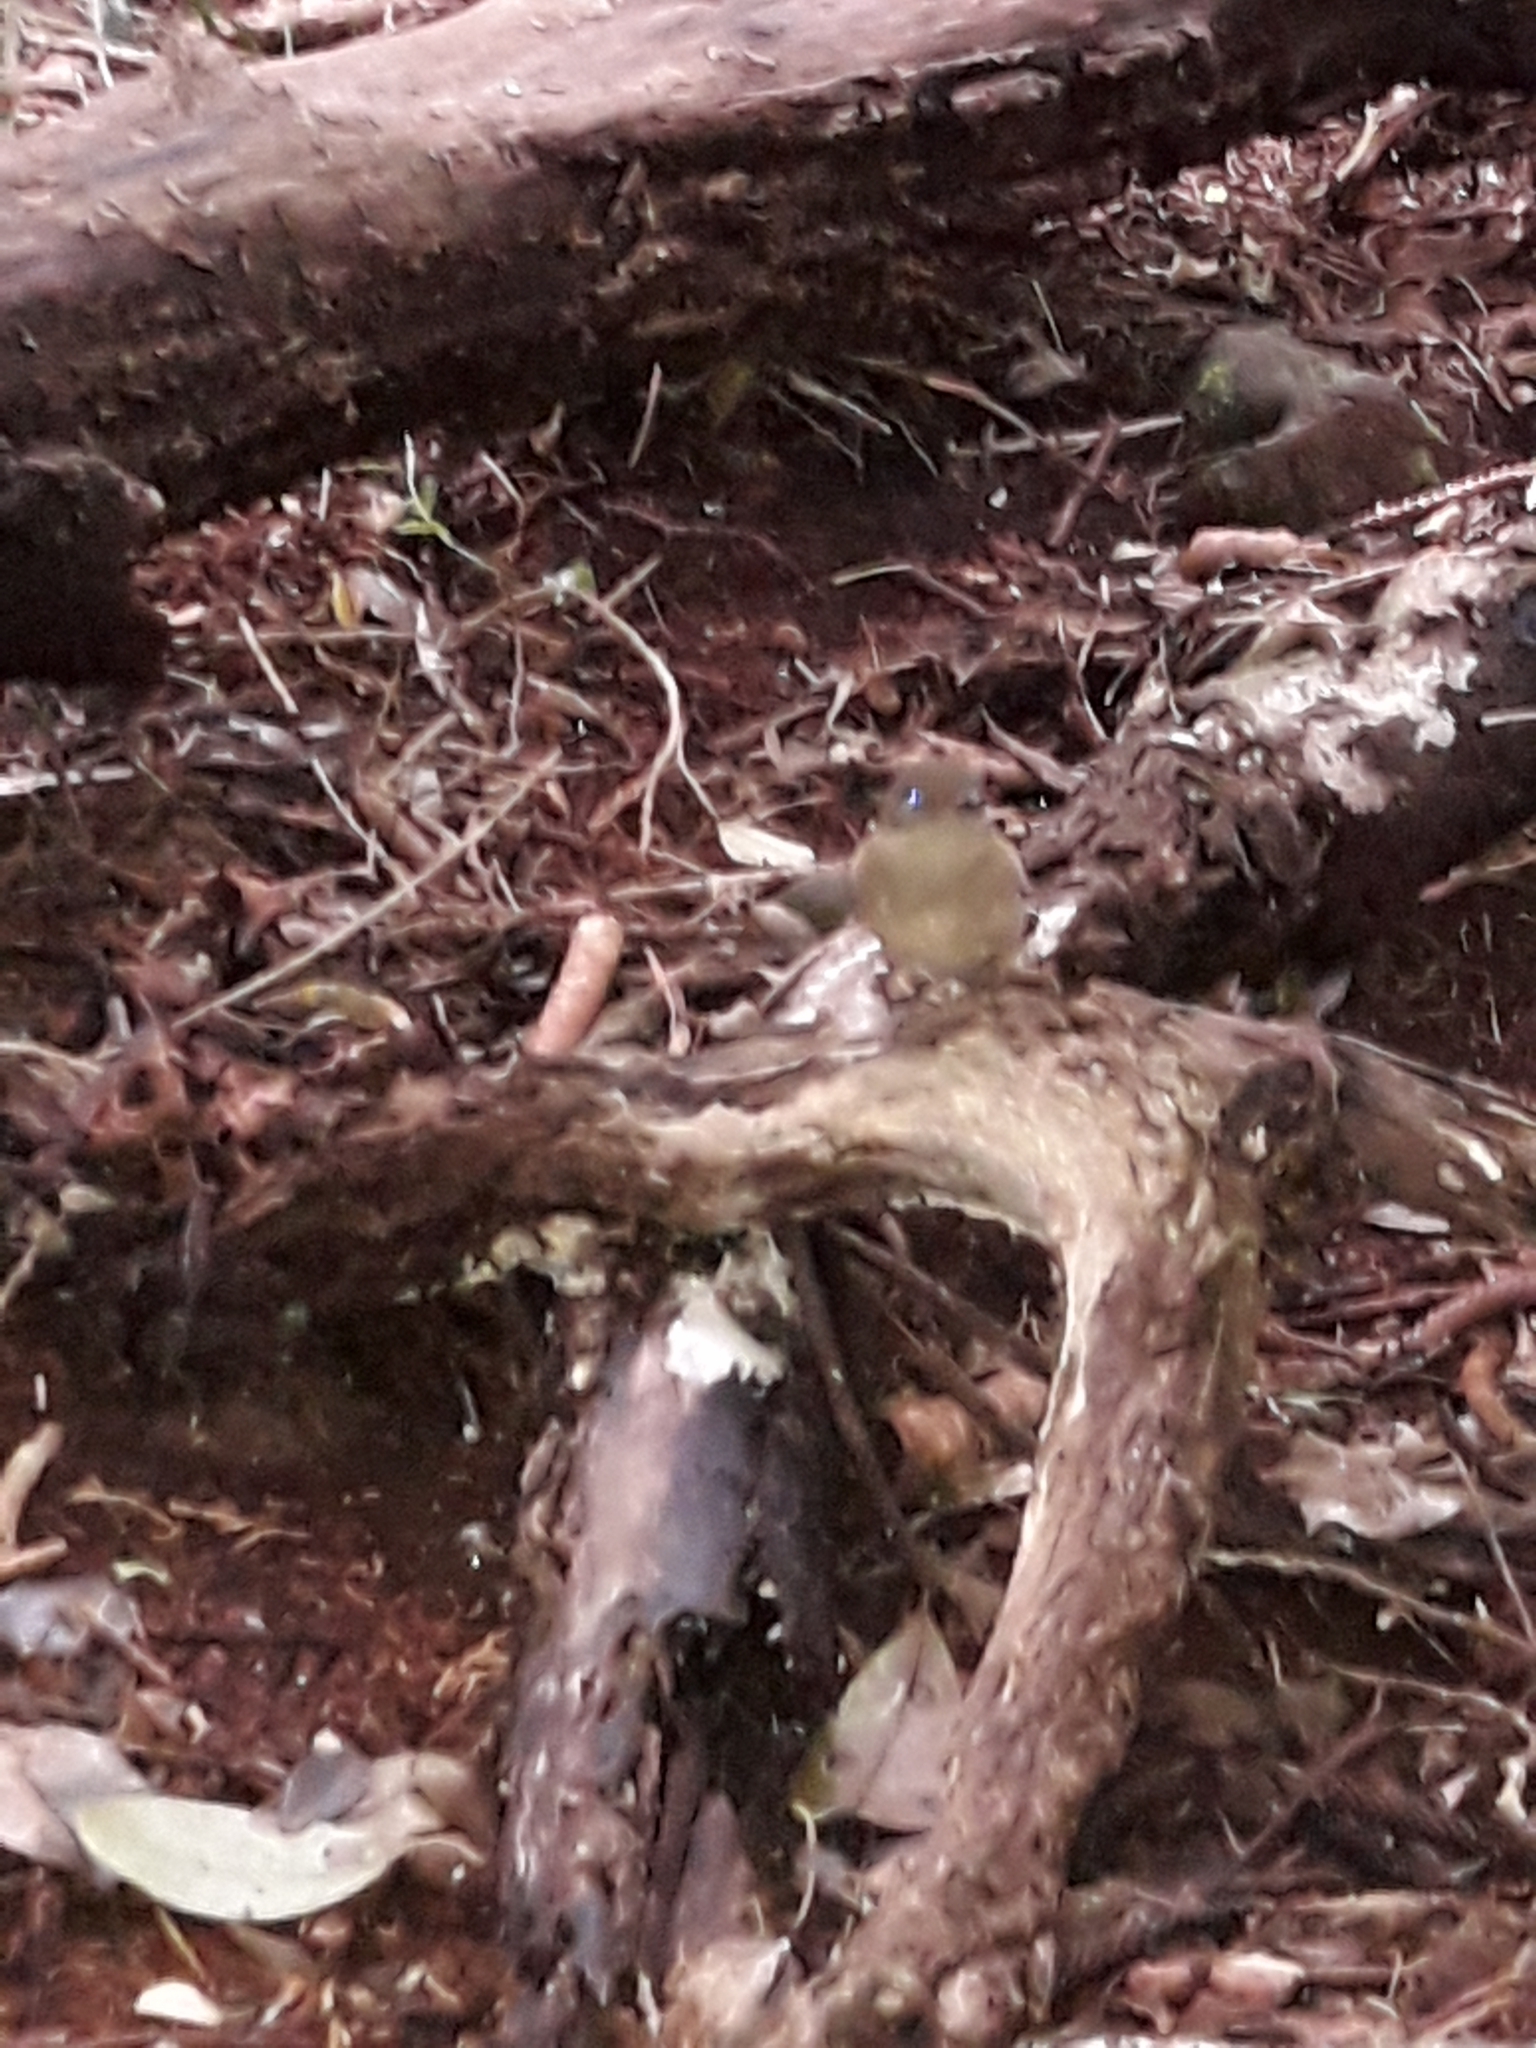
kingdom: Animalia
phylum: Chordata
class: Aves
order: Passeriformes
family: Pachycephalidae
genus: Pachycephala
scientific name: Pachycephala pectoralis
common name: Australian golden whistler
